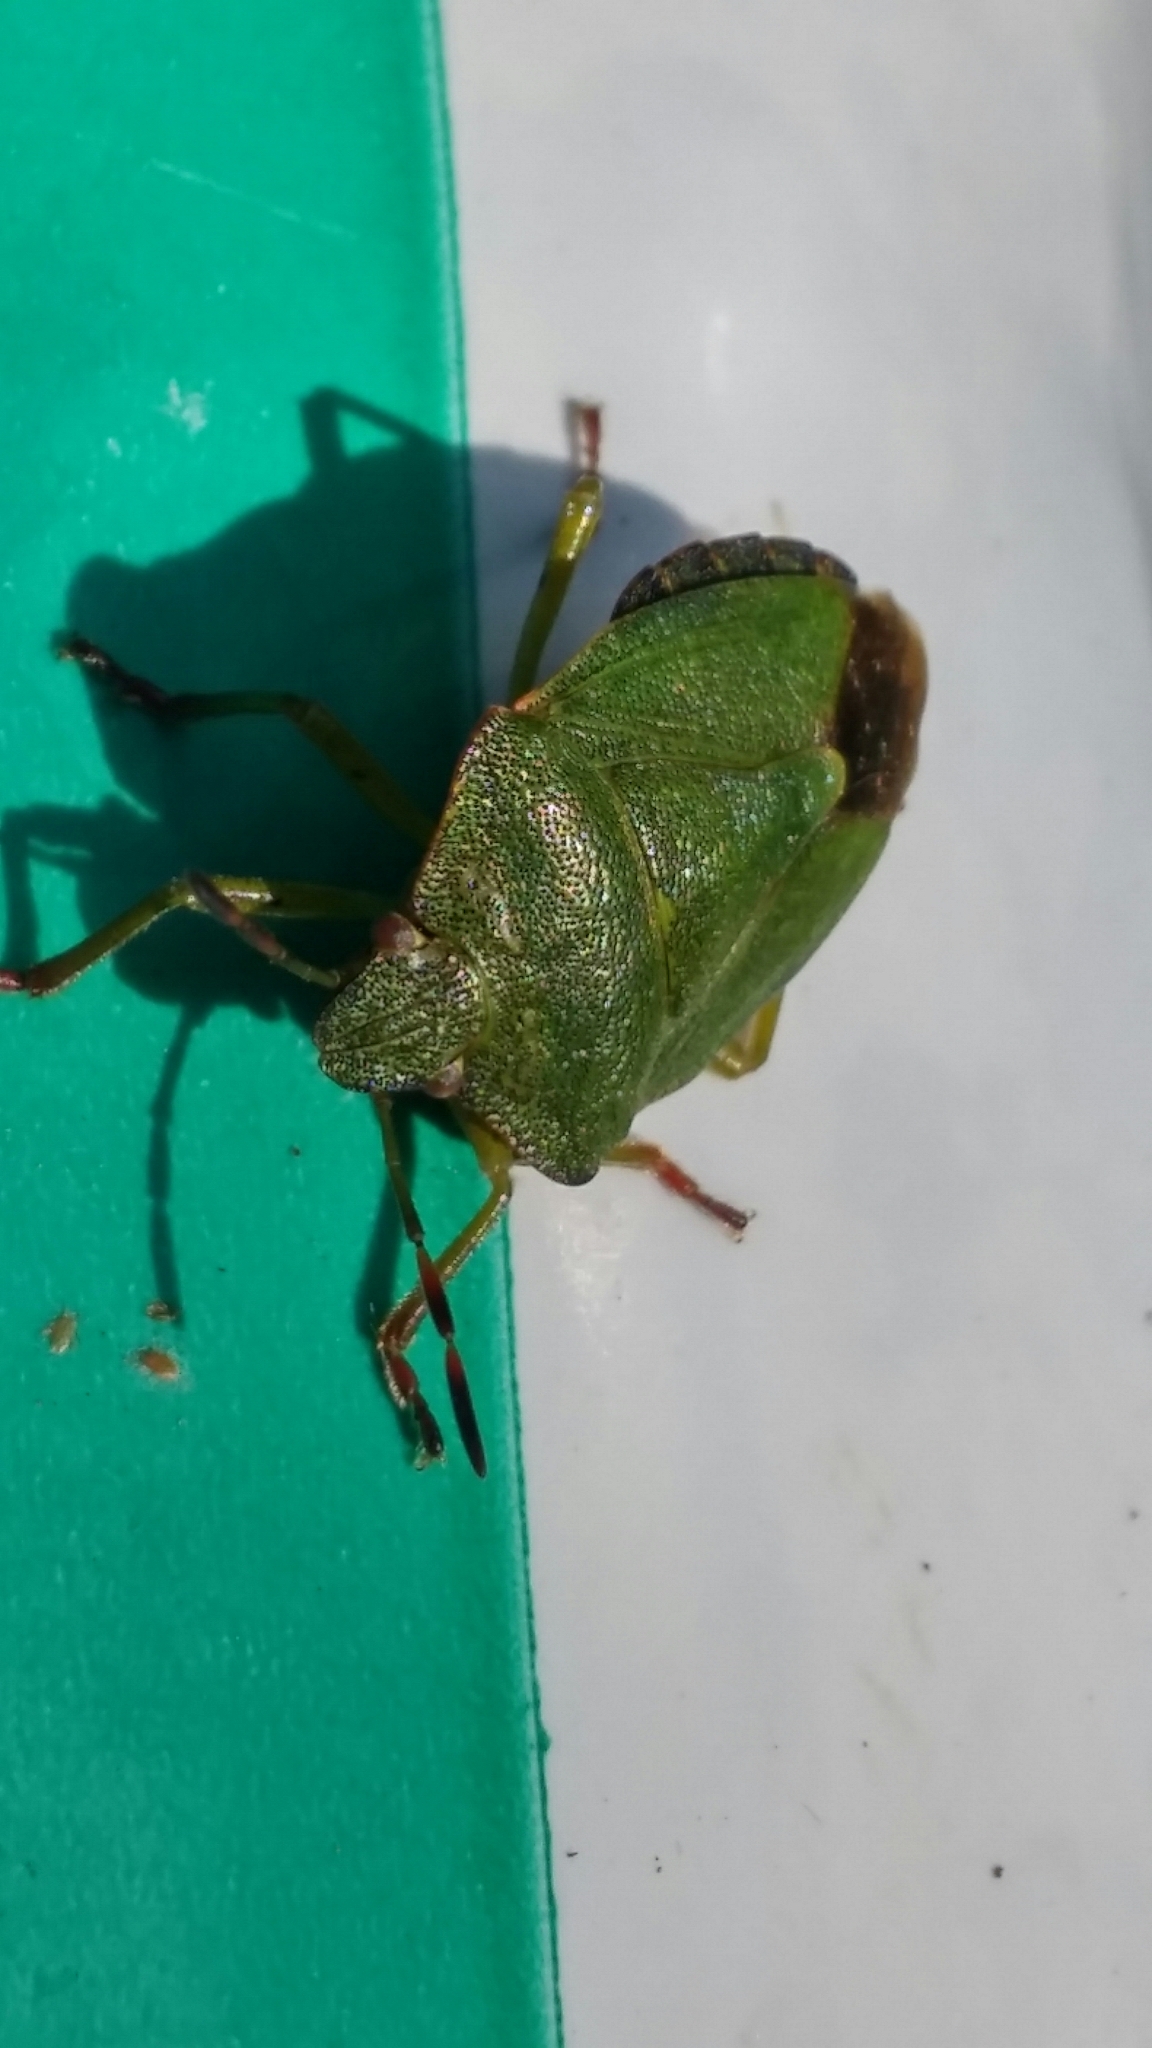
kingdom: Animalia
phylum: Arthropoda
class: Insecta
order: Hemiptera
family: Pentatomidae
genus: Palomena
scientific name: Palomena prasina
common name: Green shieldbug
